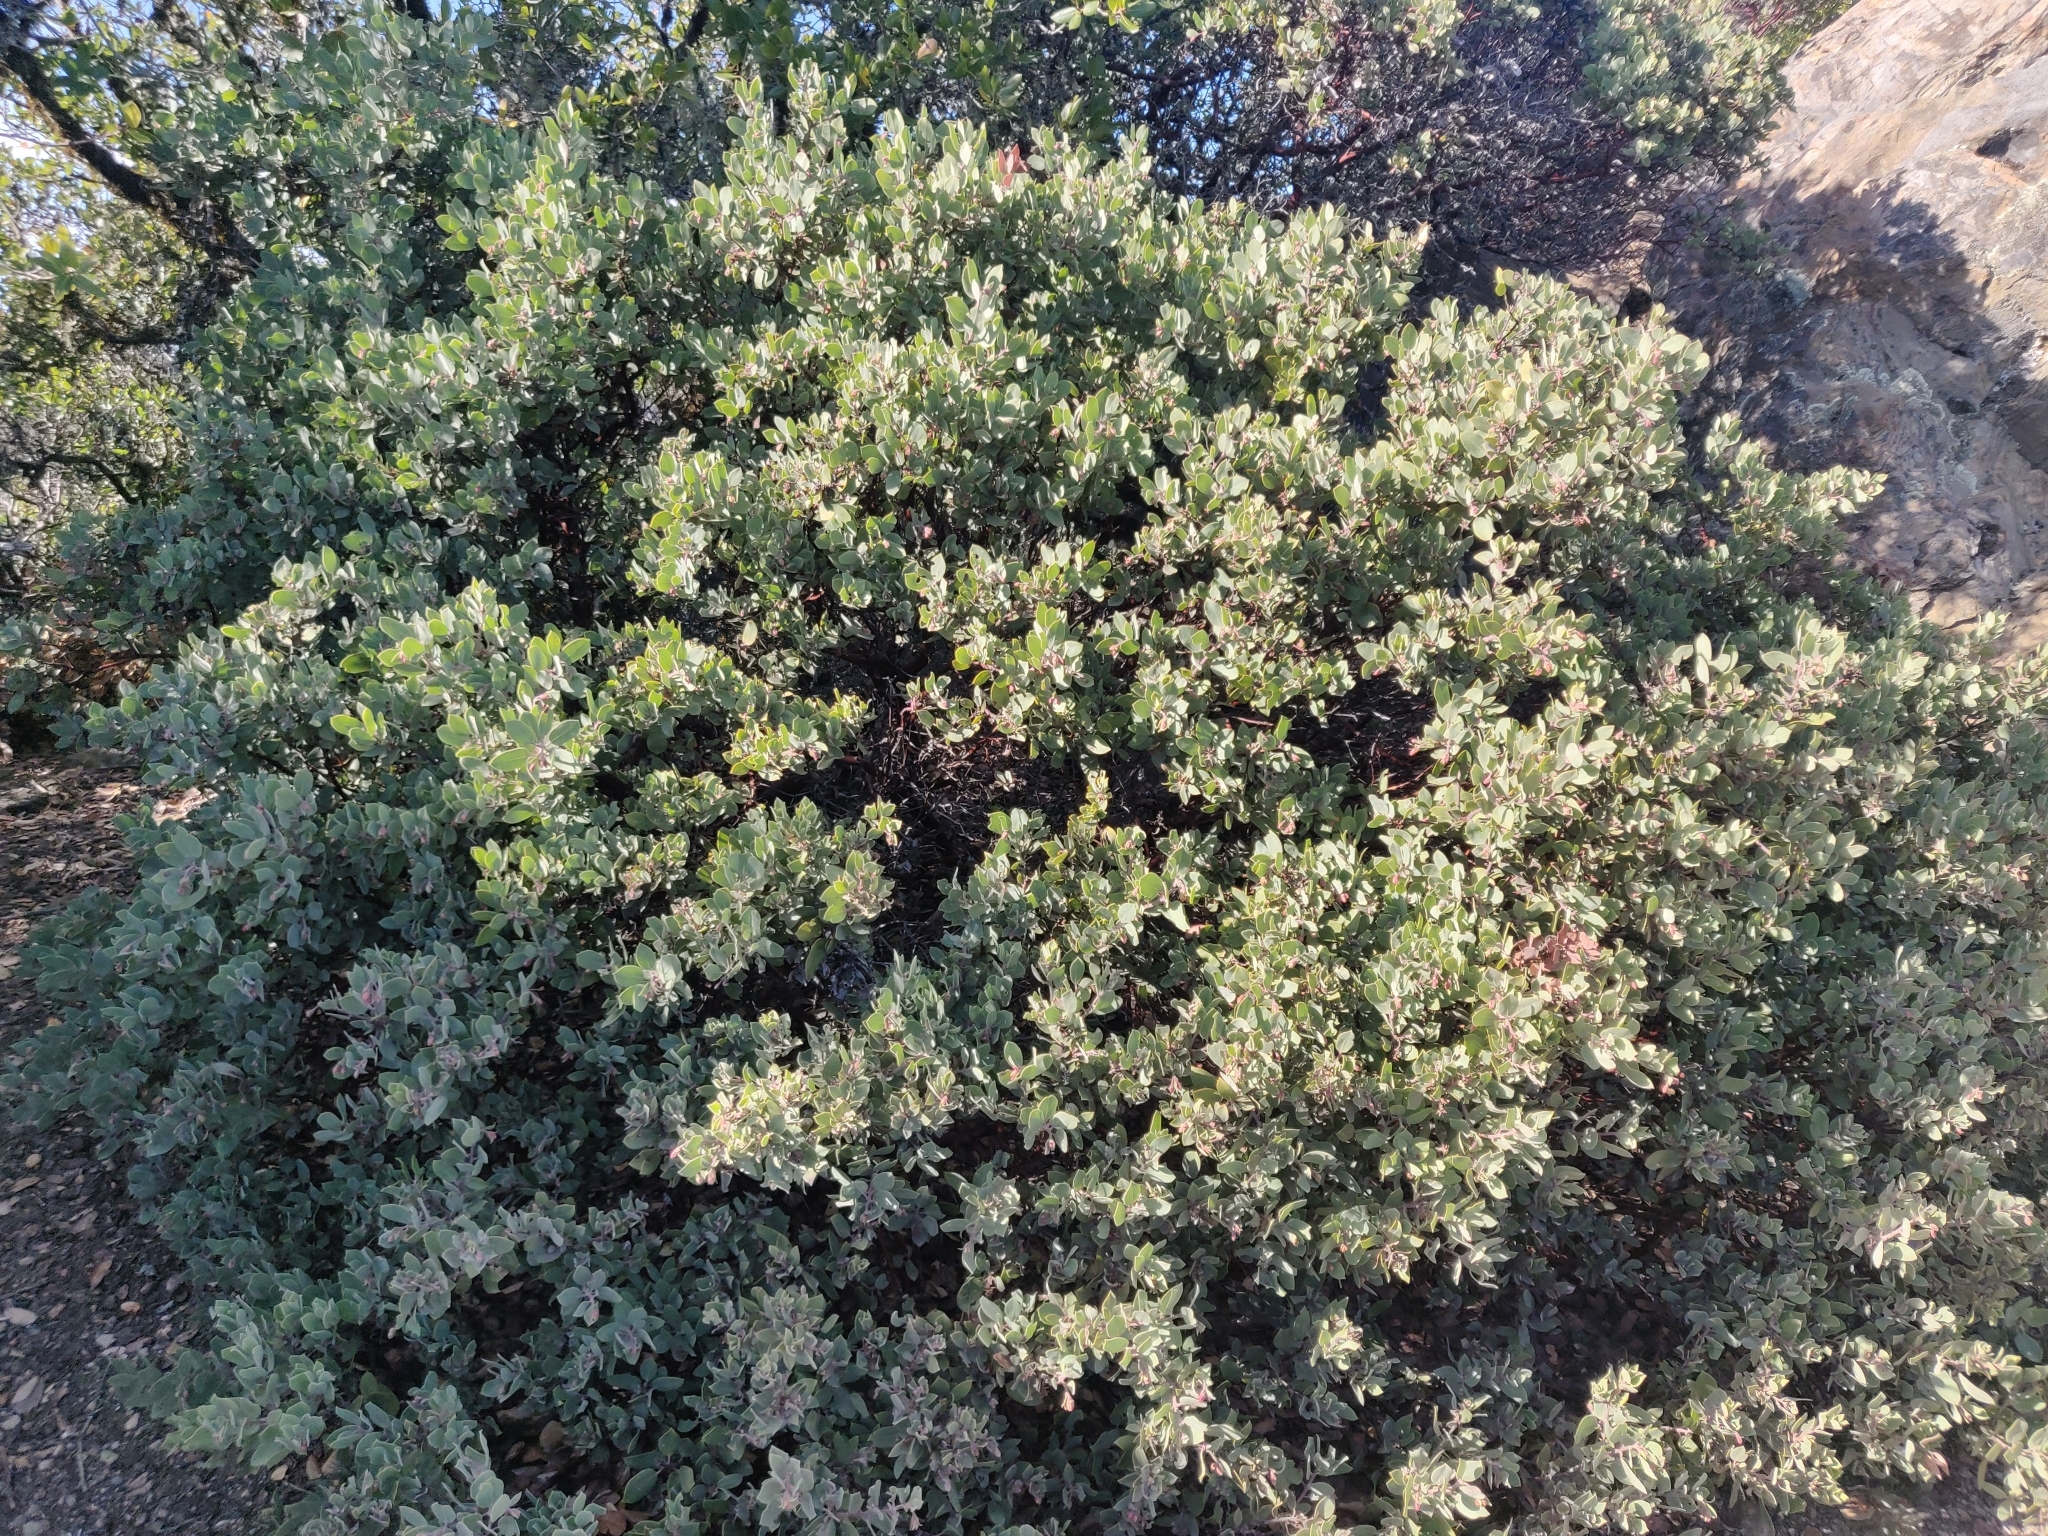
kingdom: Plantae
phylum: Tracheophyta
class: Magnoliopsida
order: Ericales
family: Ericaceae
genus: Arctostaphylos
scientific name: Arctostaphylos canescens
